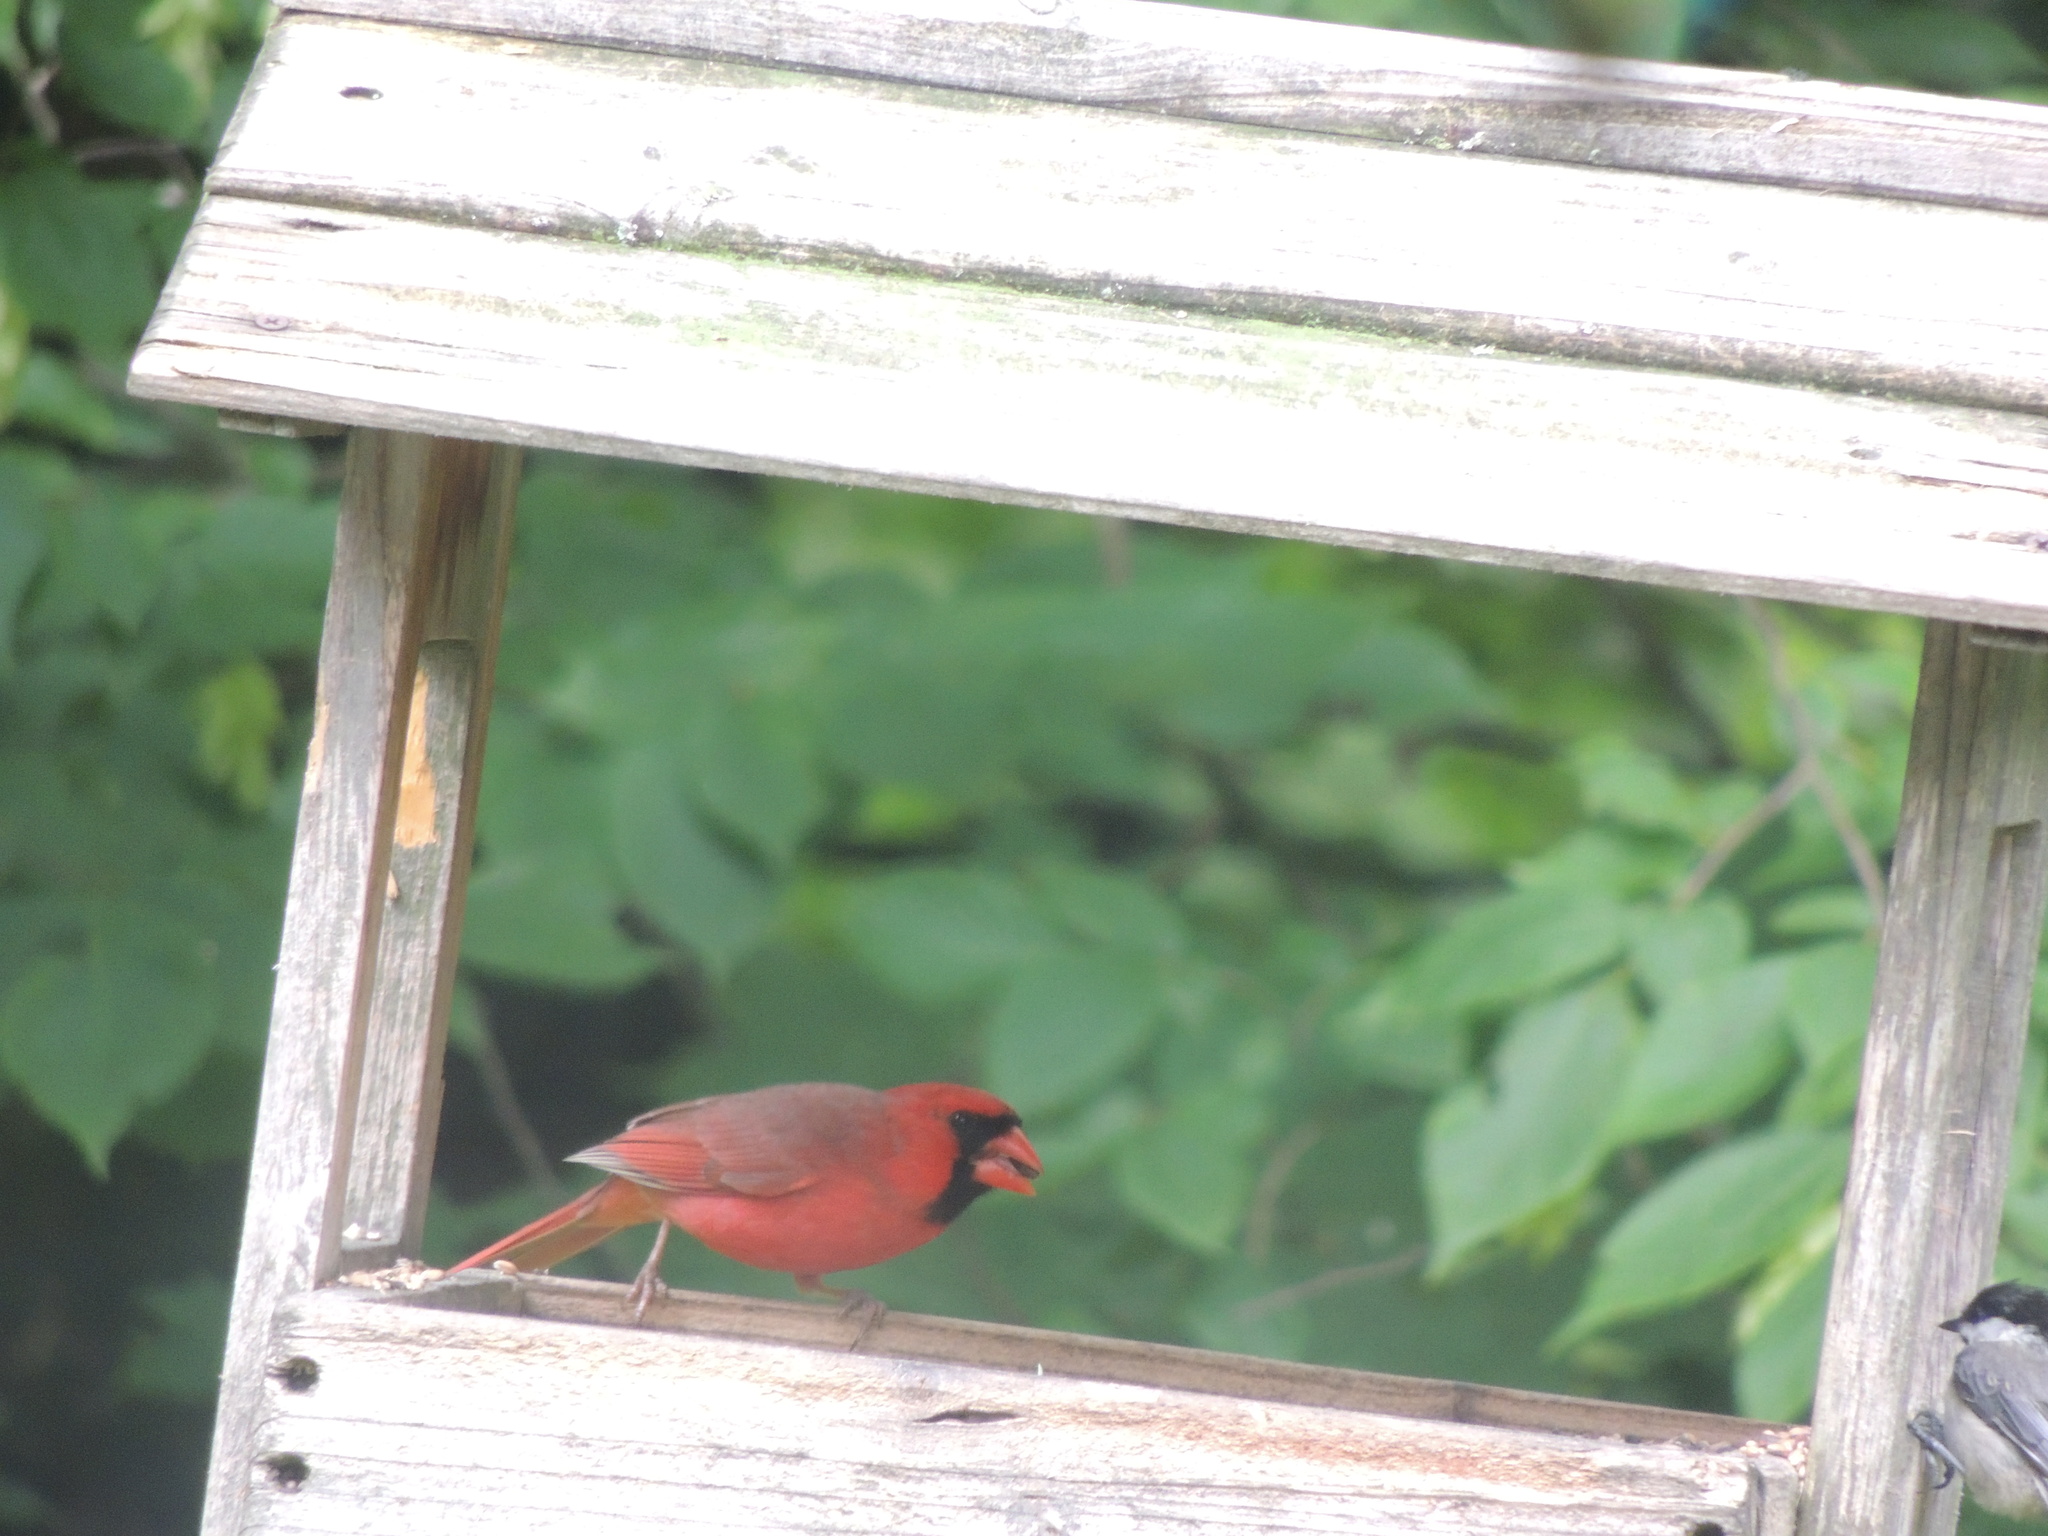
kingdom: Animalia
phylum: Chordata
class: Aves
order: Passeriformes
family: Cardinalidae
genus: Cardinalis
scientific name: Cardinalis cardinalis
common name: Northern cardinal
